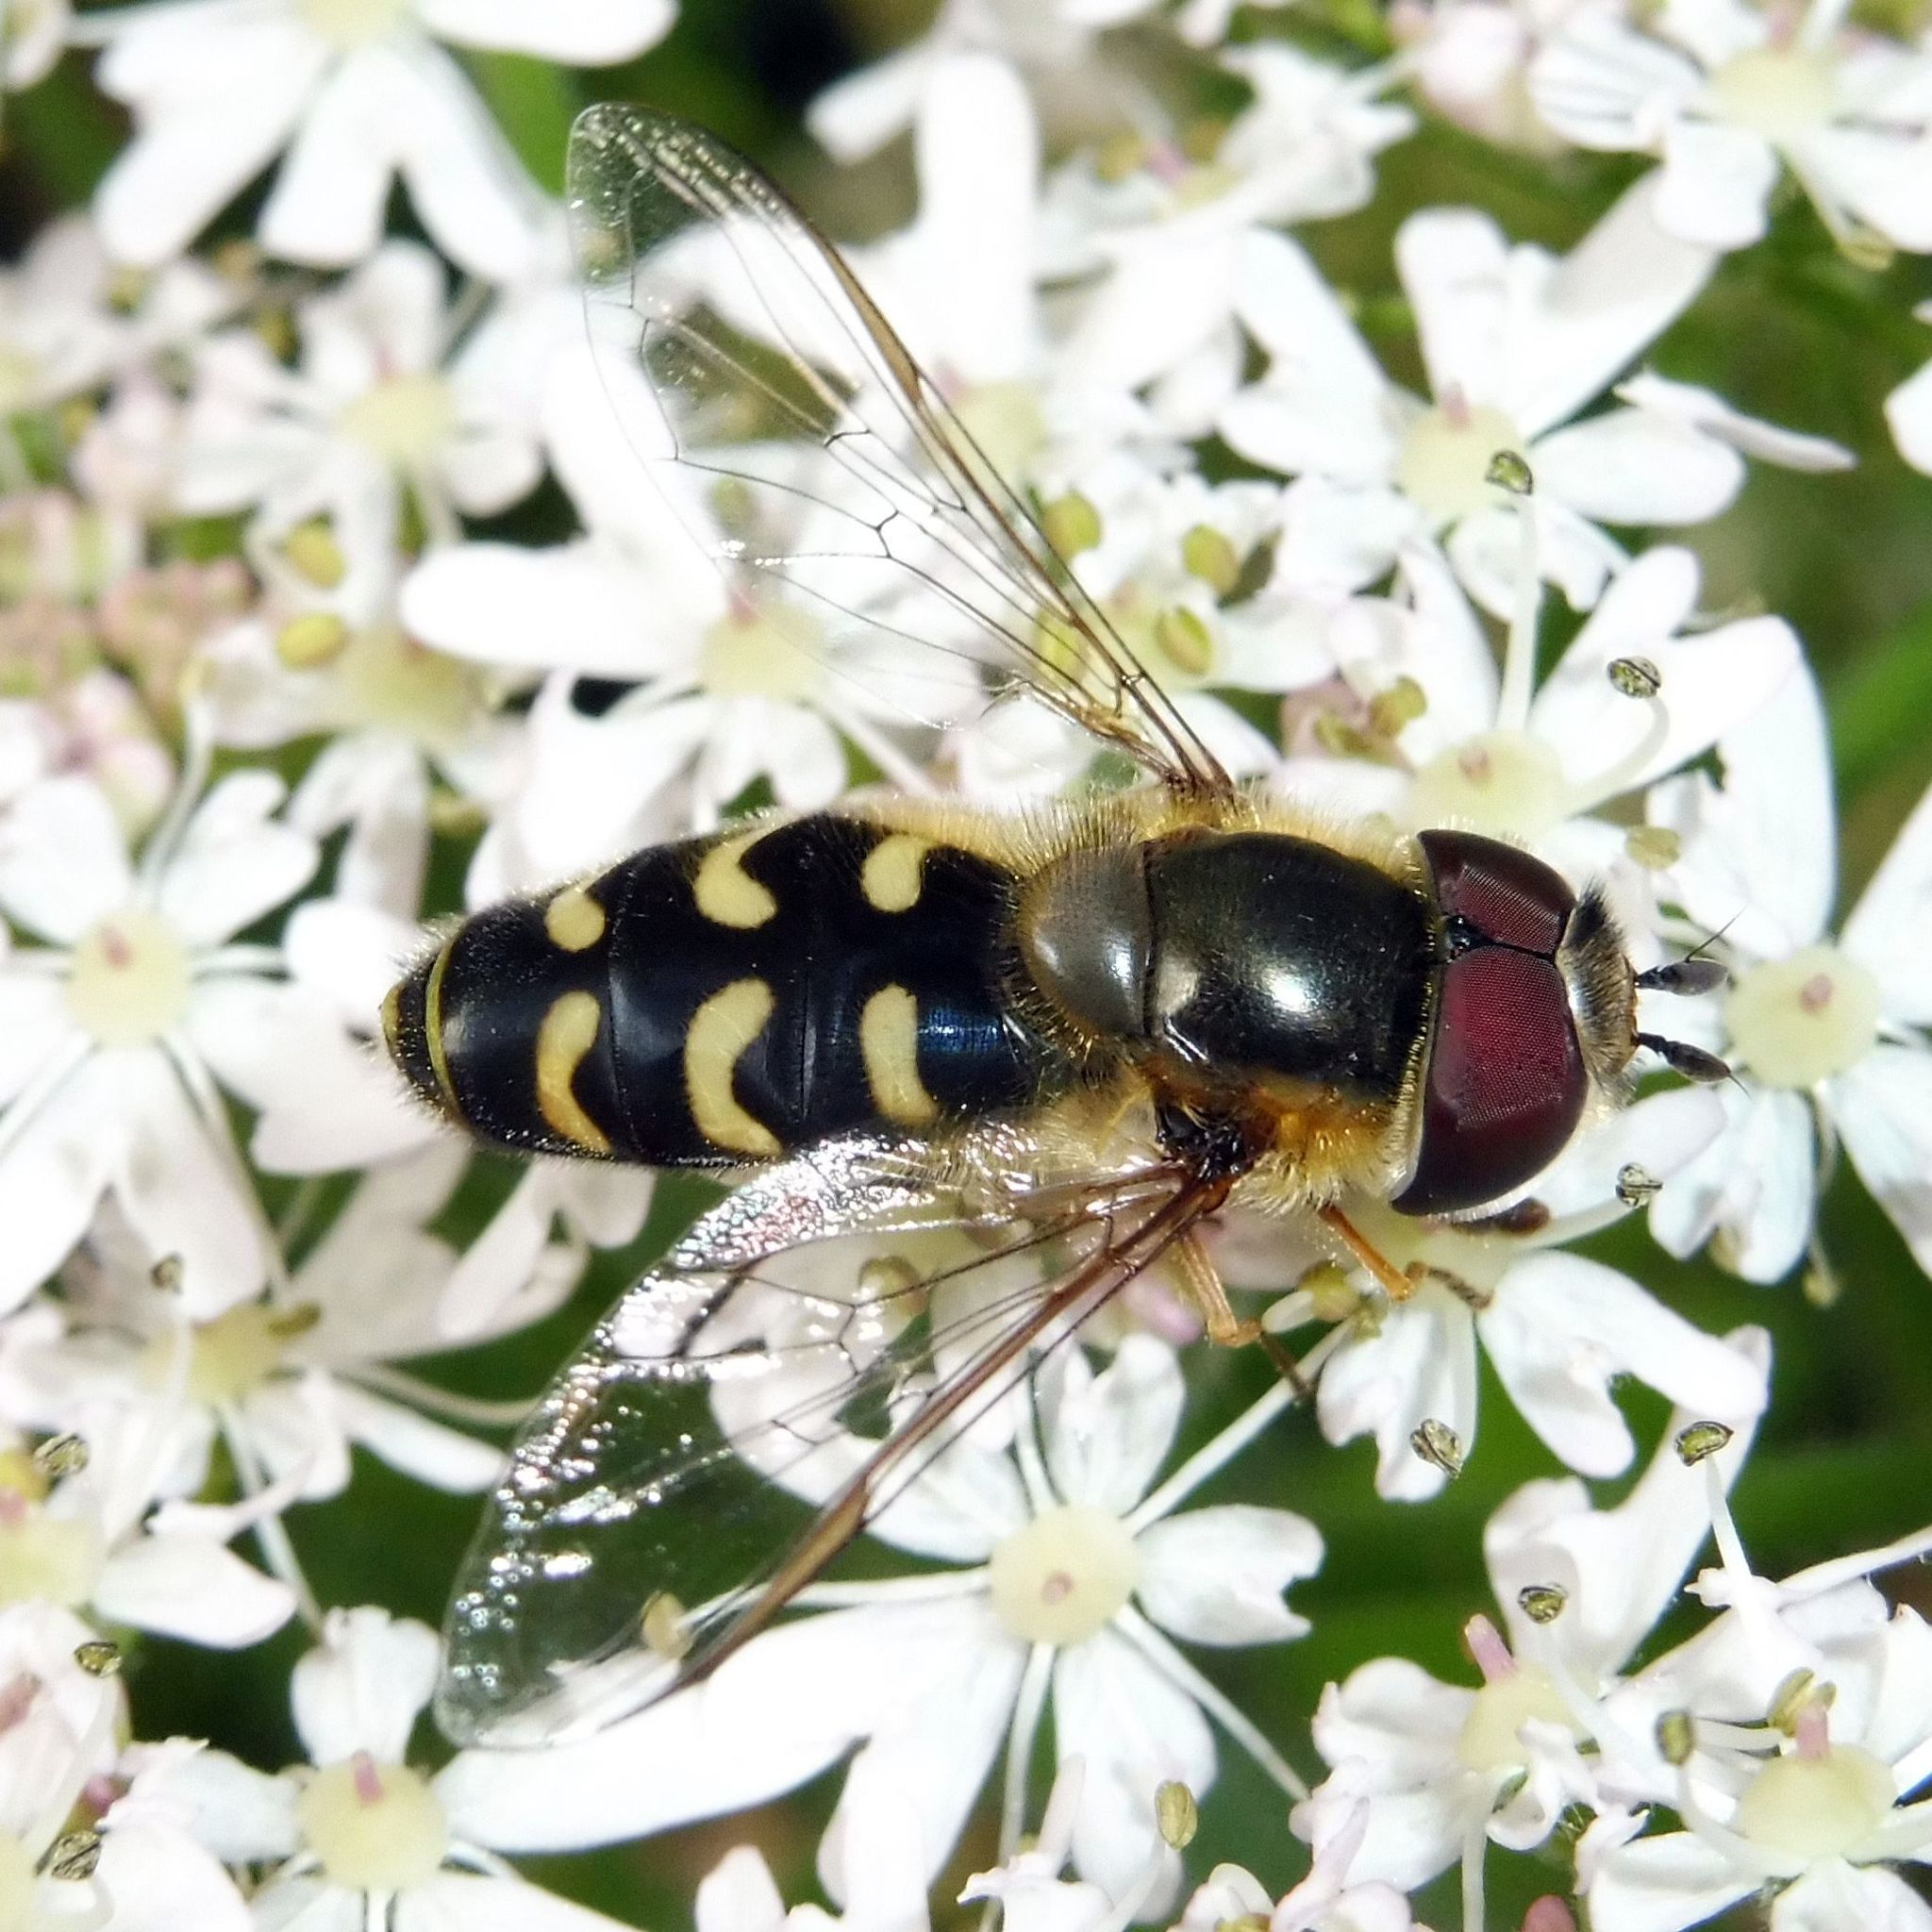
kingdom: Animalia
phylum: Arthropoda
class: Insecta
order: Diptera
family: Syrphidae
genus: Scaeva
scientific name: Scaeva selenitica
